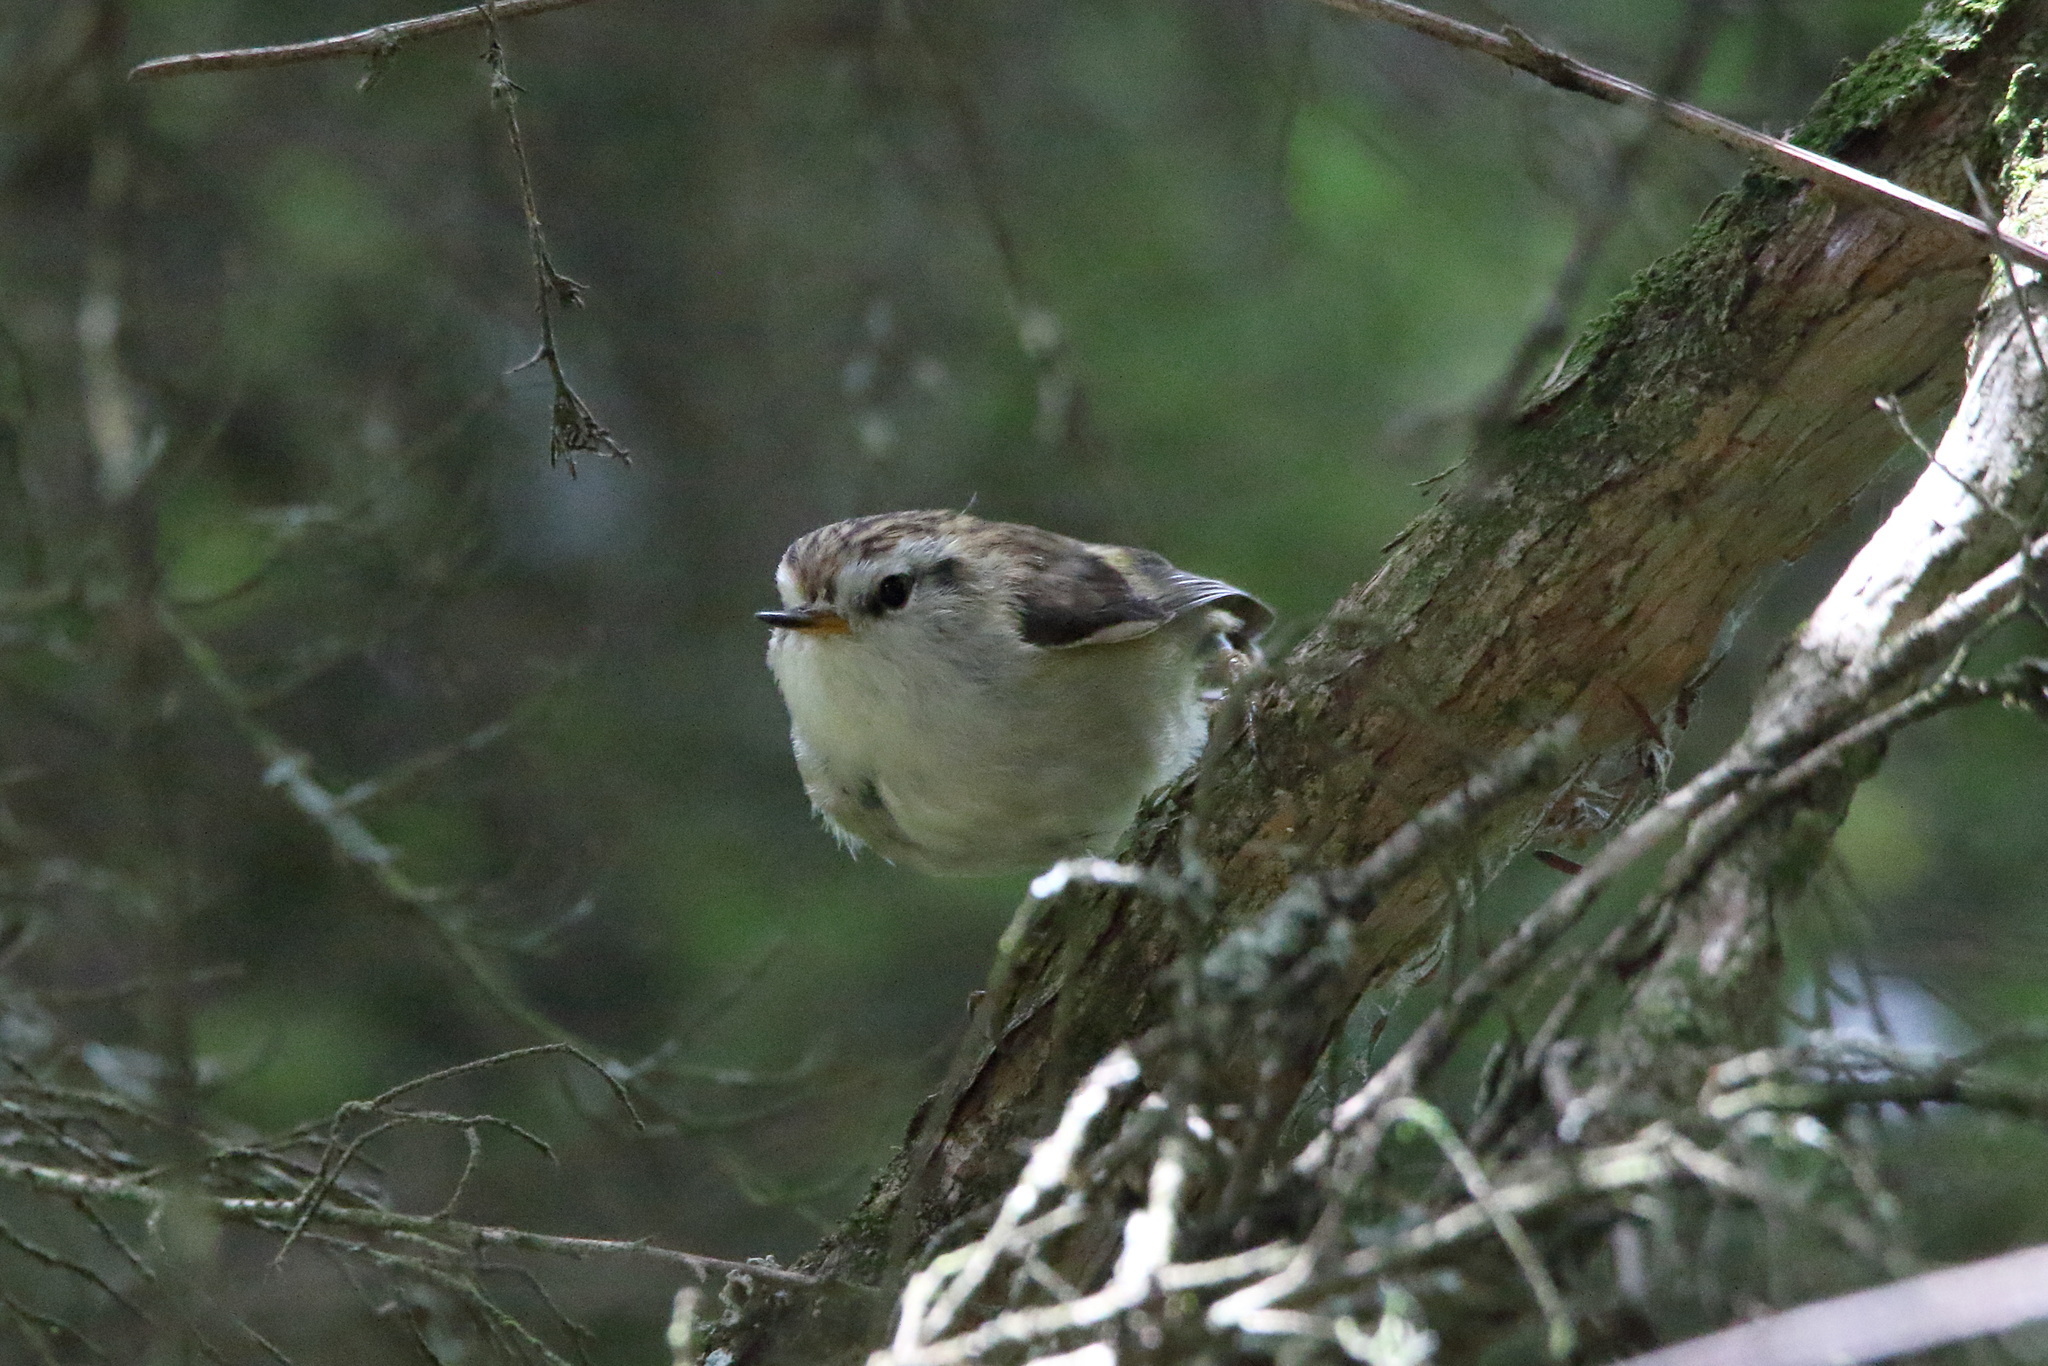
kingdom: Animalia
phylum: Chordata
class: Aves
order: Passeriformes
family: Acanthisittidae
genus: Acanthisitta
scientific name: Acanthisitta chloris
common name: Rifleman
